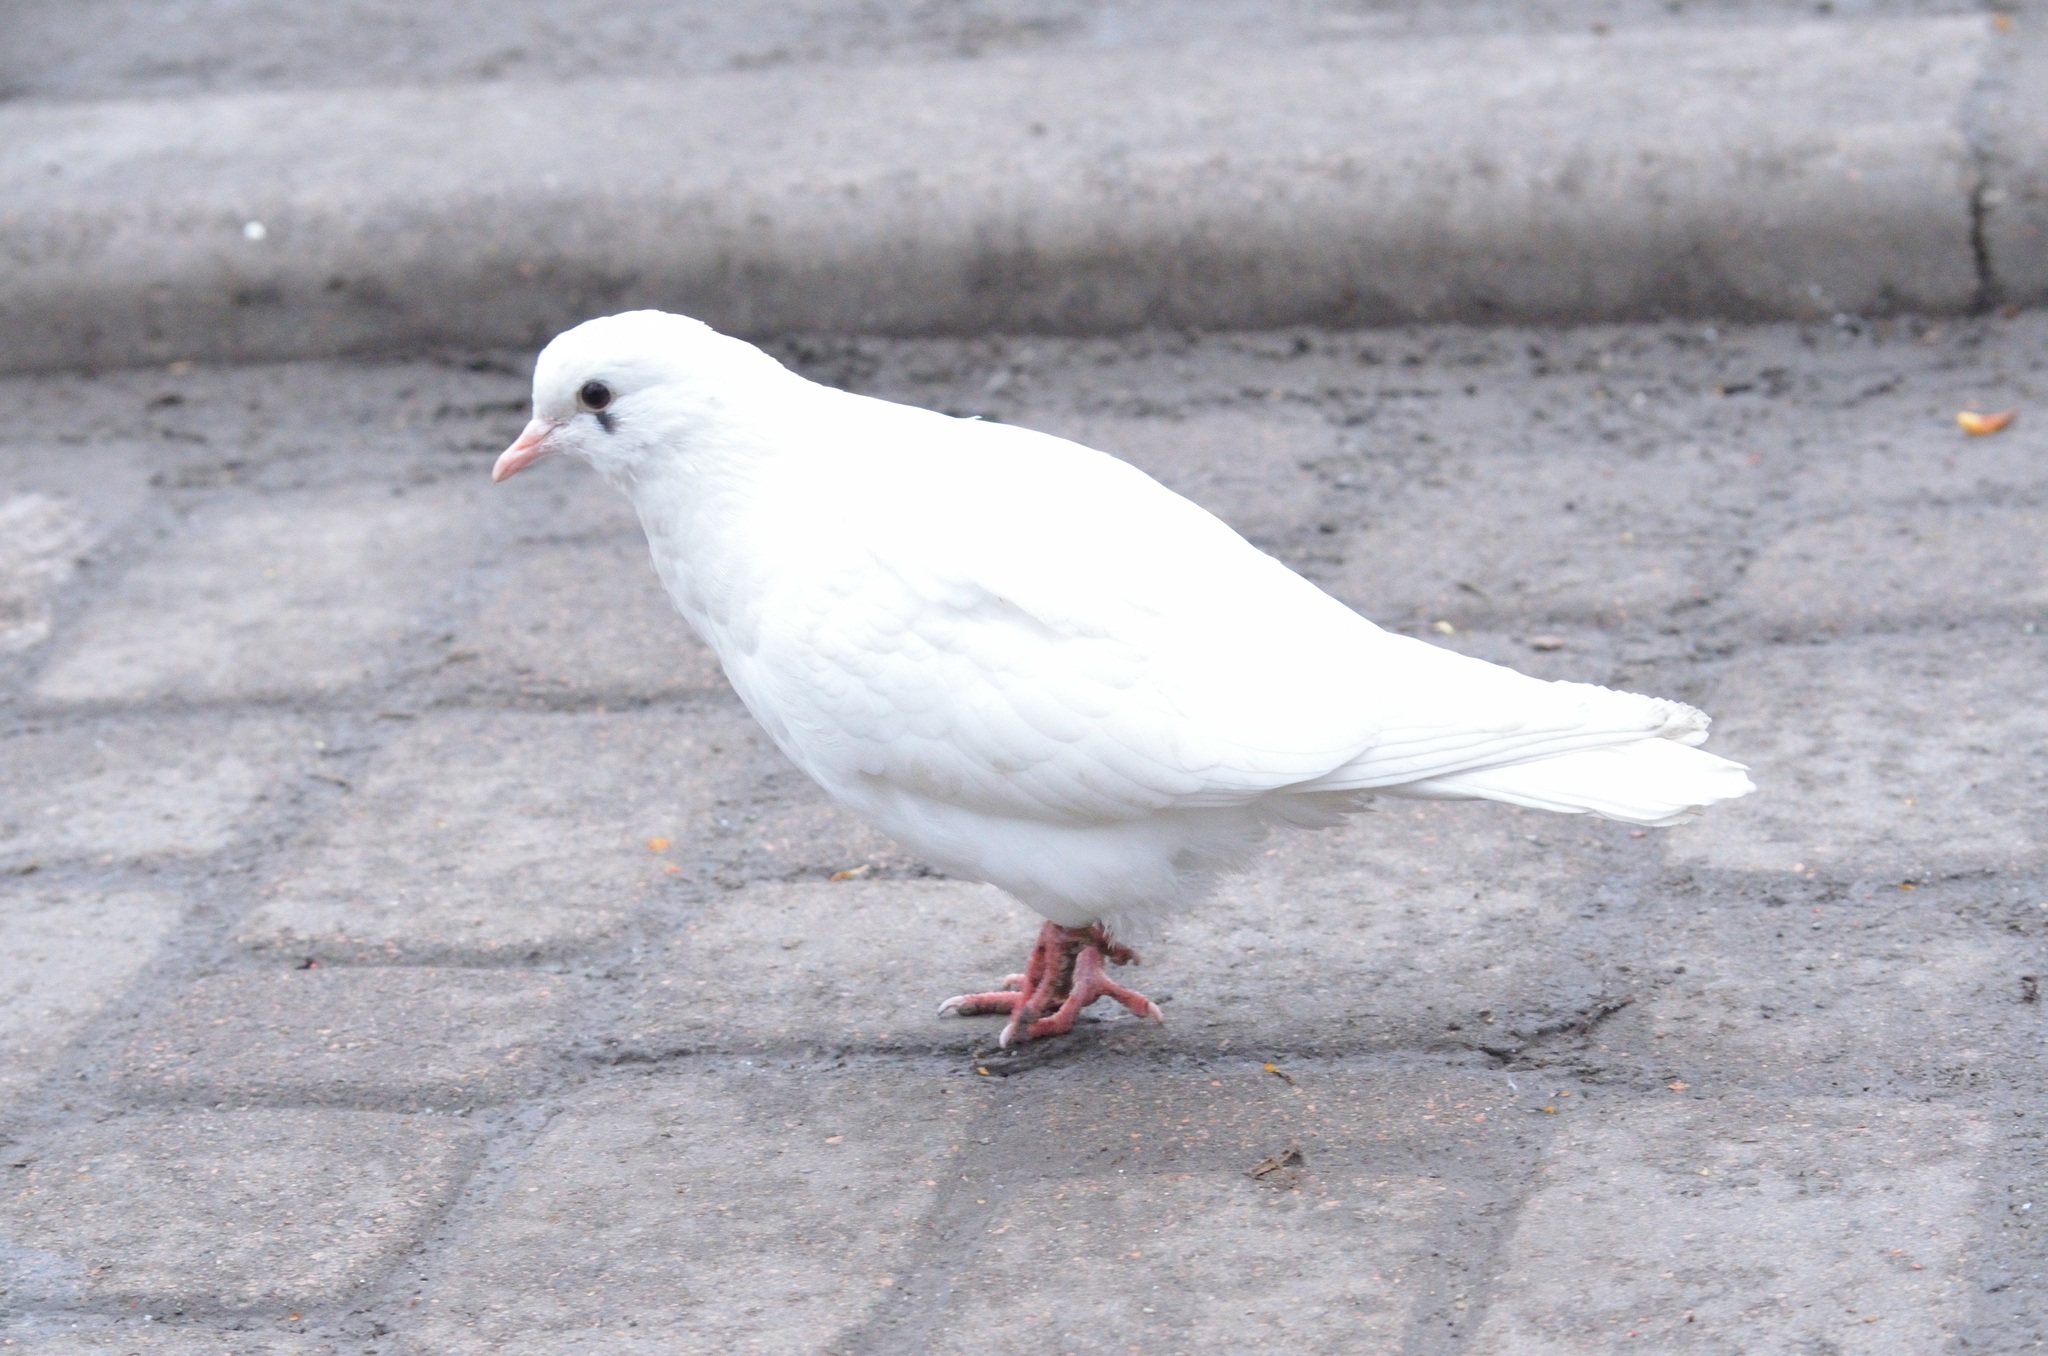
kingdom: Animalia
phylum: Chordata
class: Aves
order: Columbiformes
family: Columbidae
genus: Columba
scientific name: Columba livia
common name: Rock pigeon
